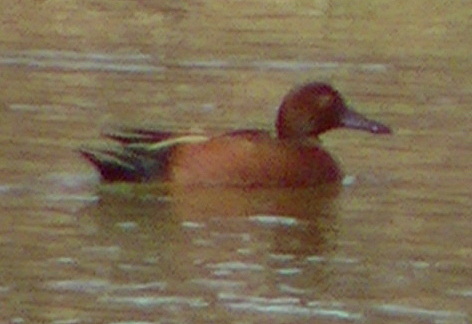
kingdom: Animalia
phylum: Chordata
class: Aves
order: Anseriformes
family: Anatidae
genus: Spatula
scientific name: Spatula cyanoptera
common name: Cinnamon teal
